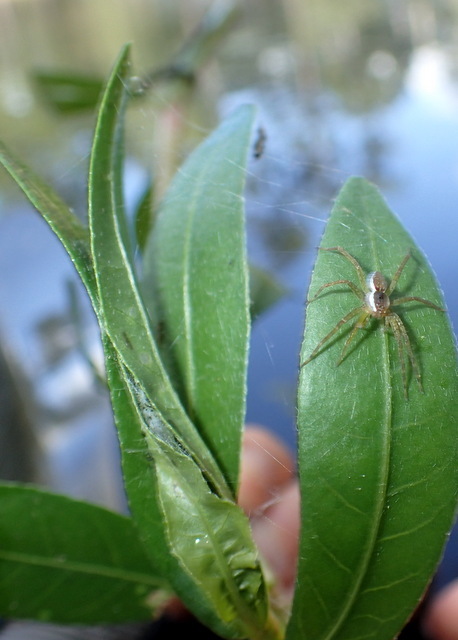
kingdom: Animalia
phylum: Arthropoda
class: Arachnida
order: Araneae
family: Pisauridae
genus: Dolomedes
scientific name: Dolomedes triton
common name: Six-spotted fishing spider
